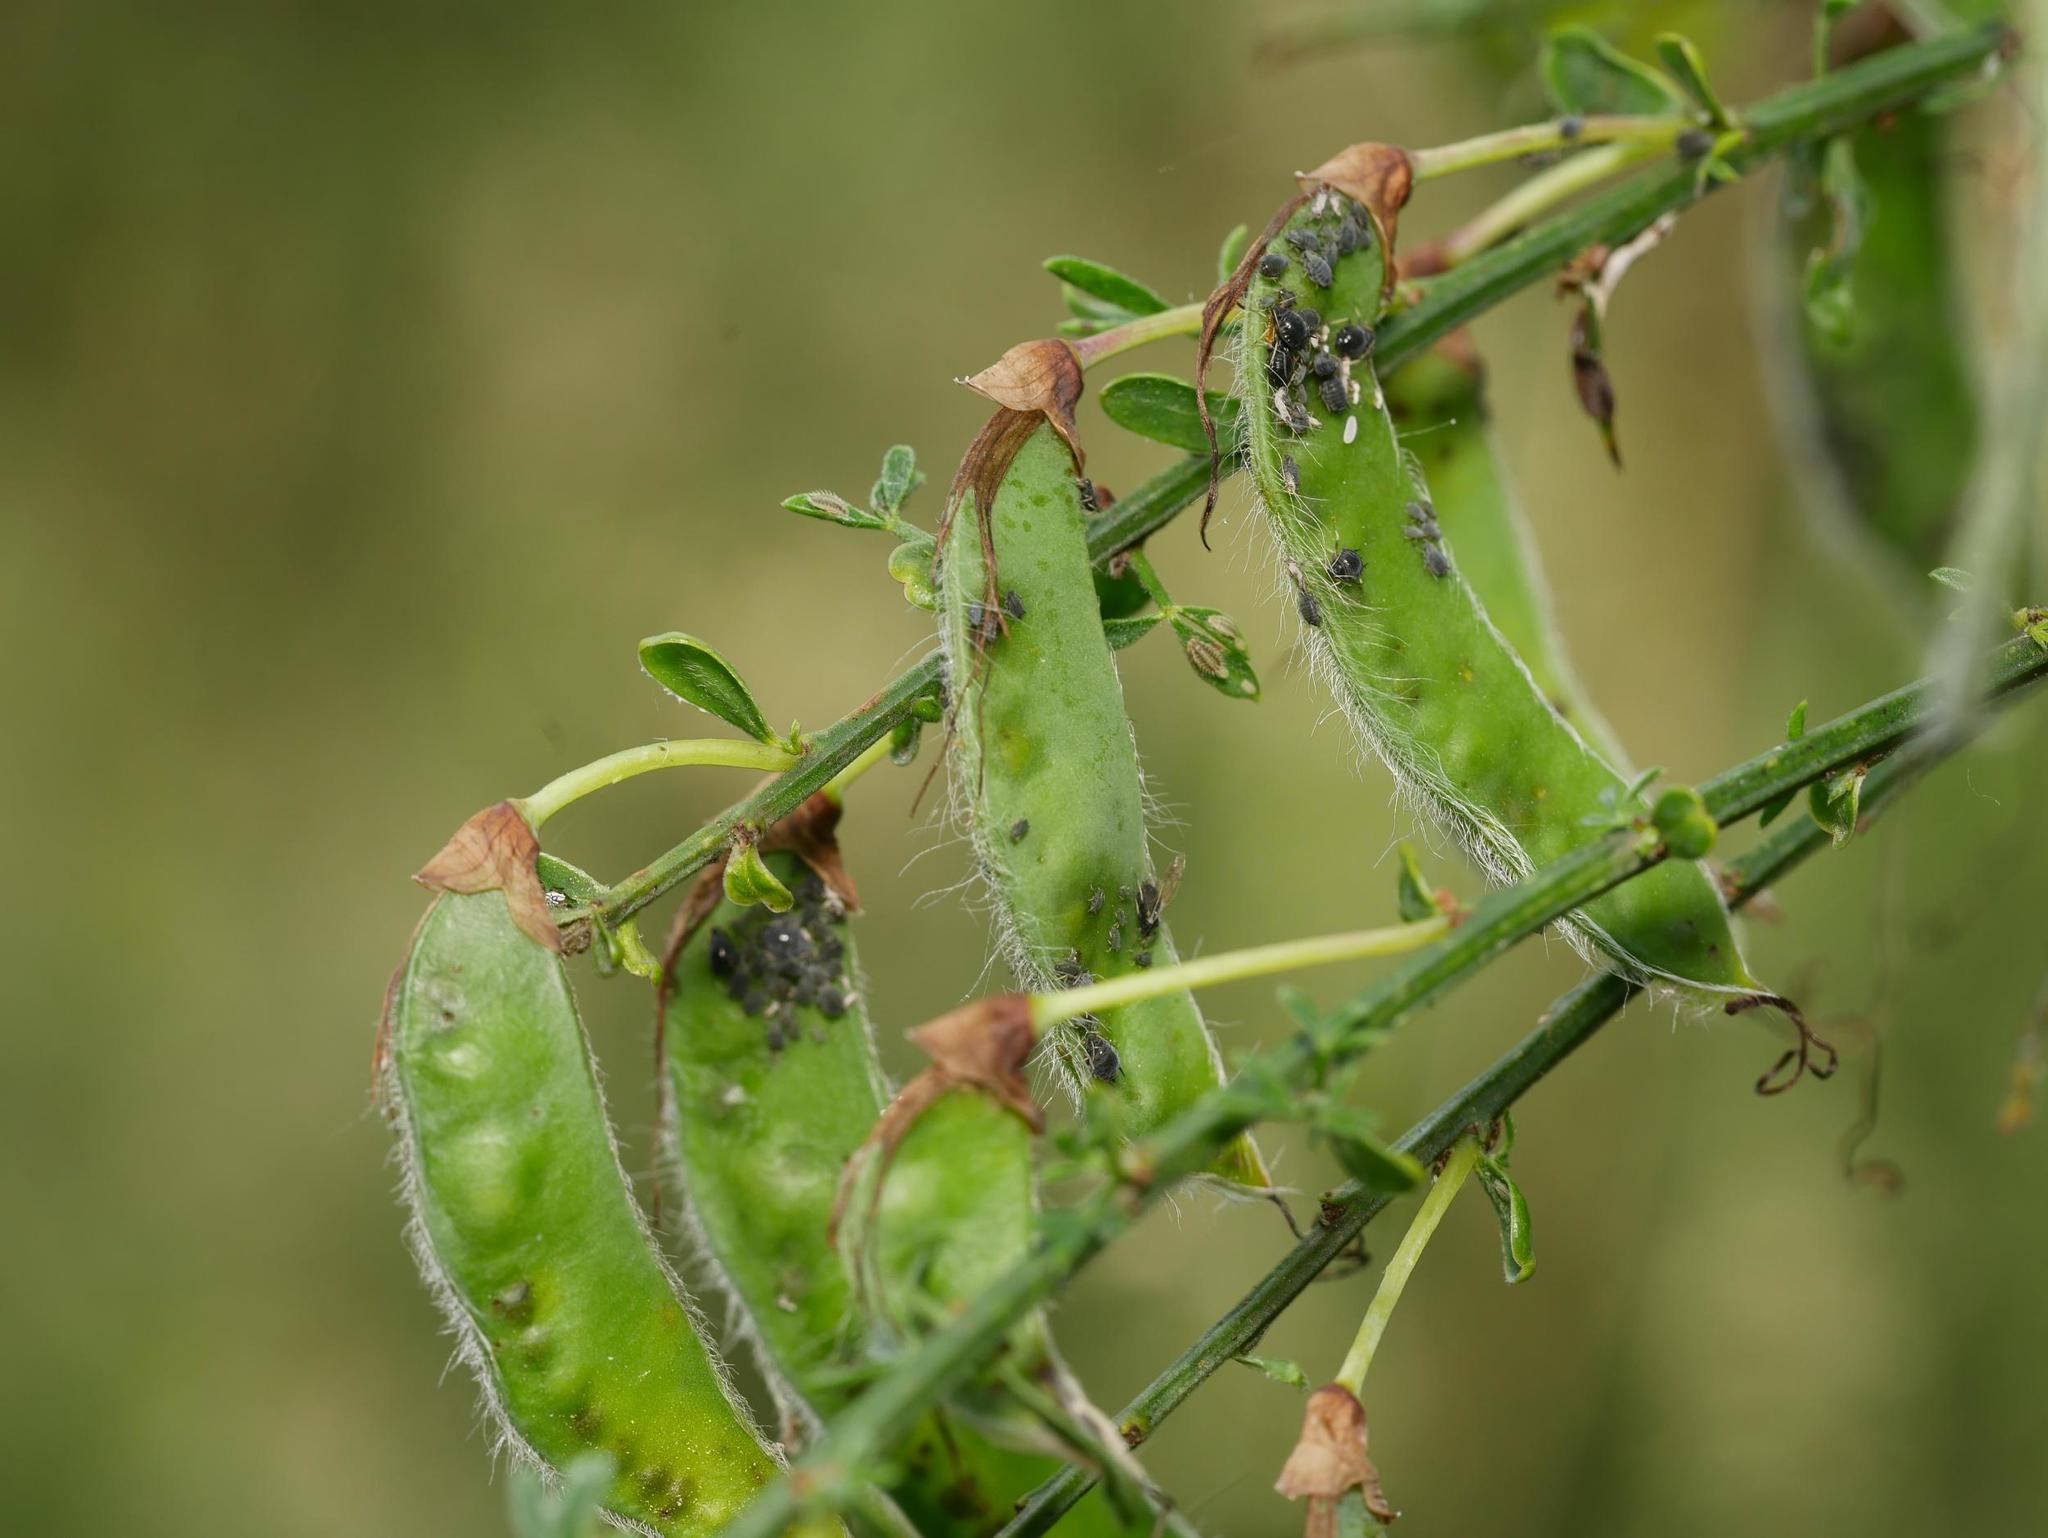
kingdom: Plantae
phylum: Tracheophyta
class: Magnoliopsida
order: Fabales
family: Fabaceae
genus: Cytisus
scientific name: Cytisus scoparius
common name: Scotch broom
